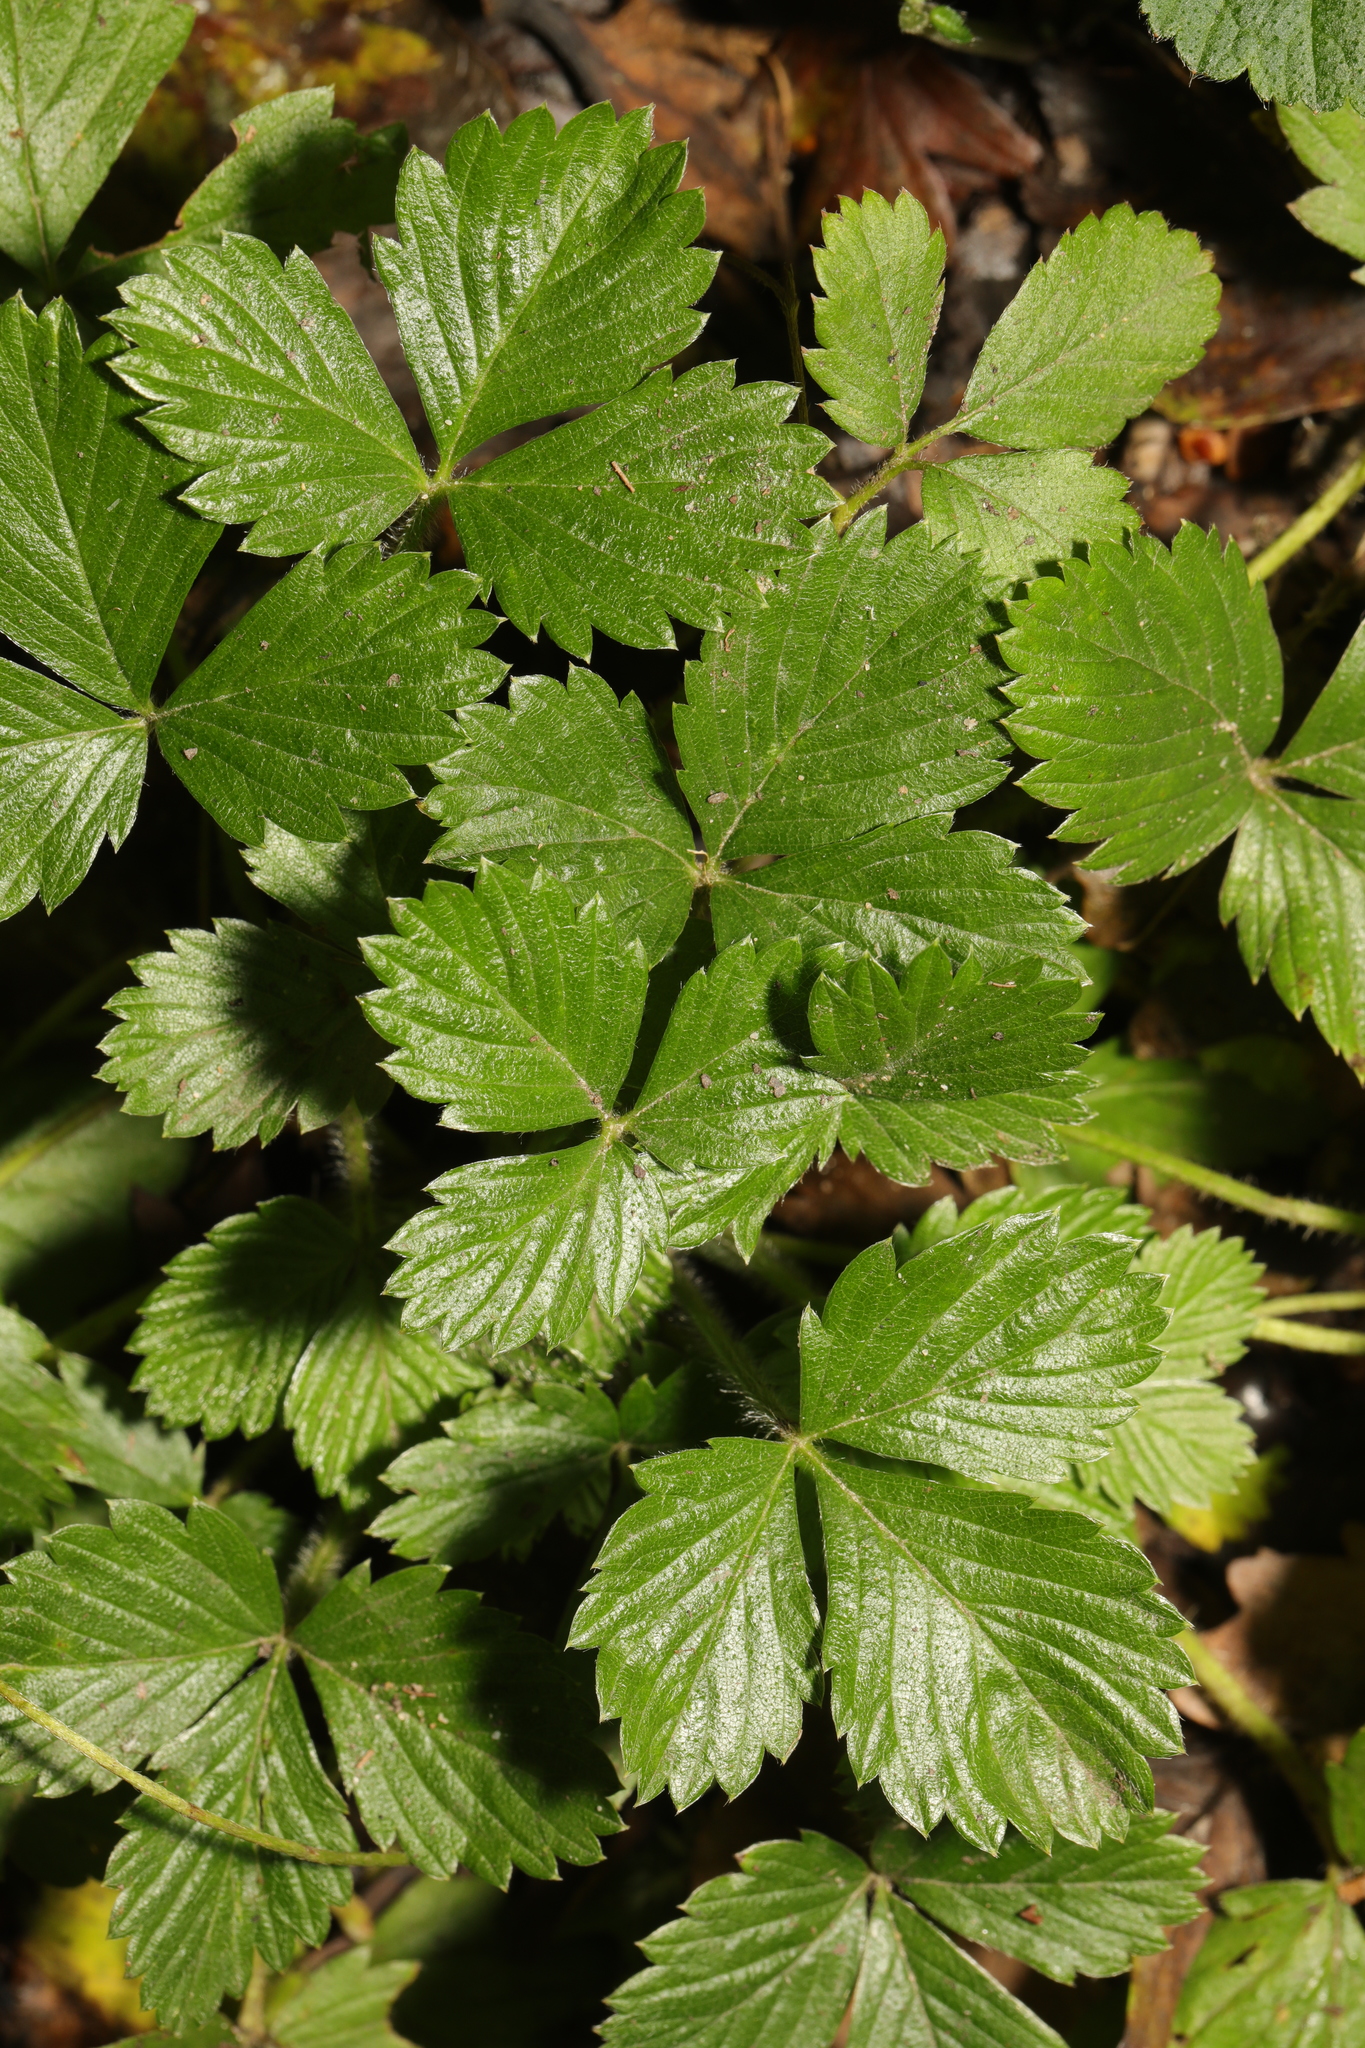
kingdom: Plantae
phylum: Tracheophyta
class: Magnoliopsida
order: Rosales
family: Rosaceae
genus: Fragaria
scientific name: Fragaria vesca
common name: Wild strawberry
